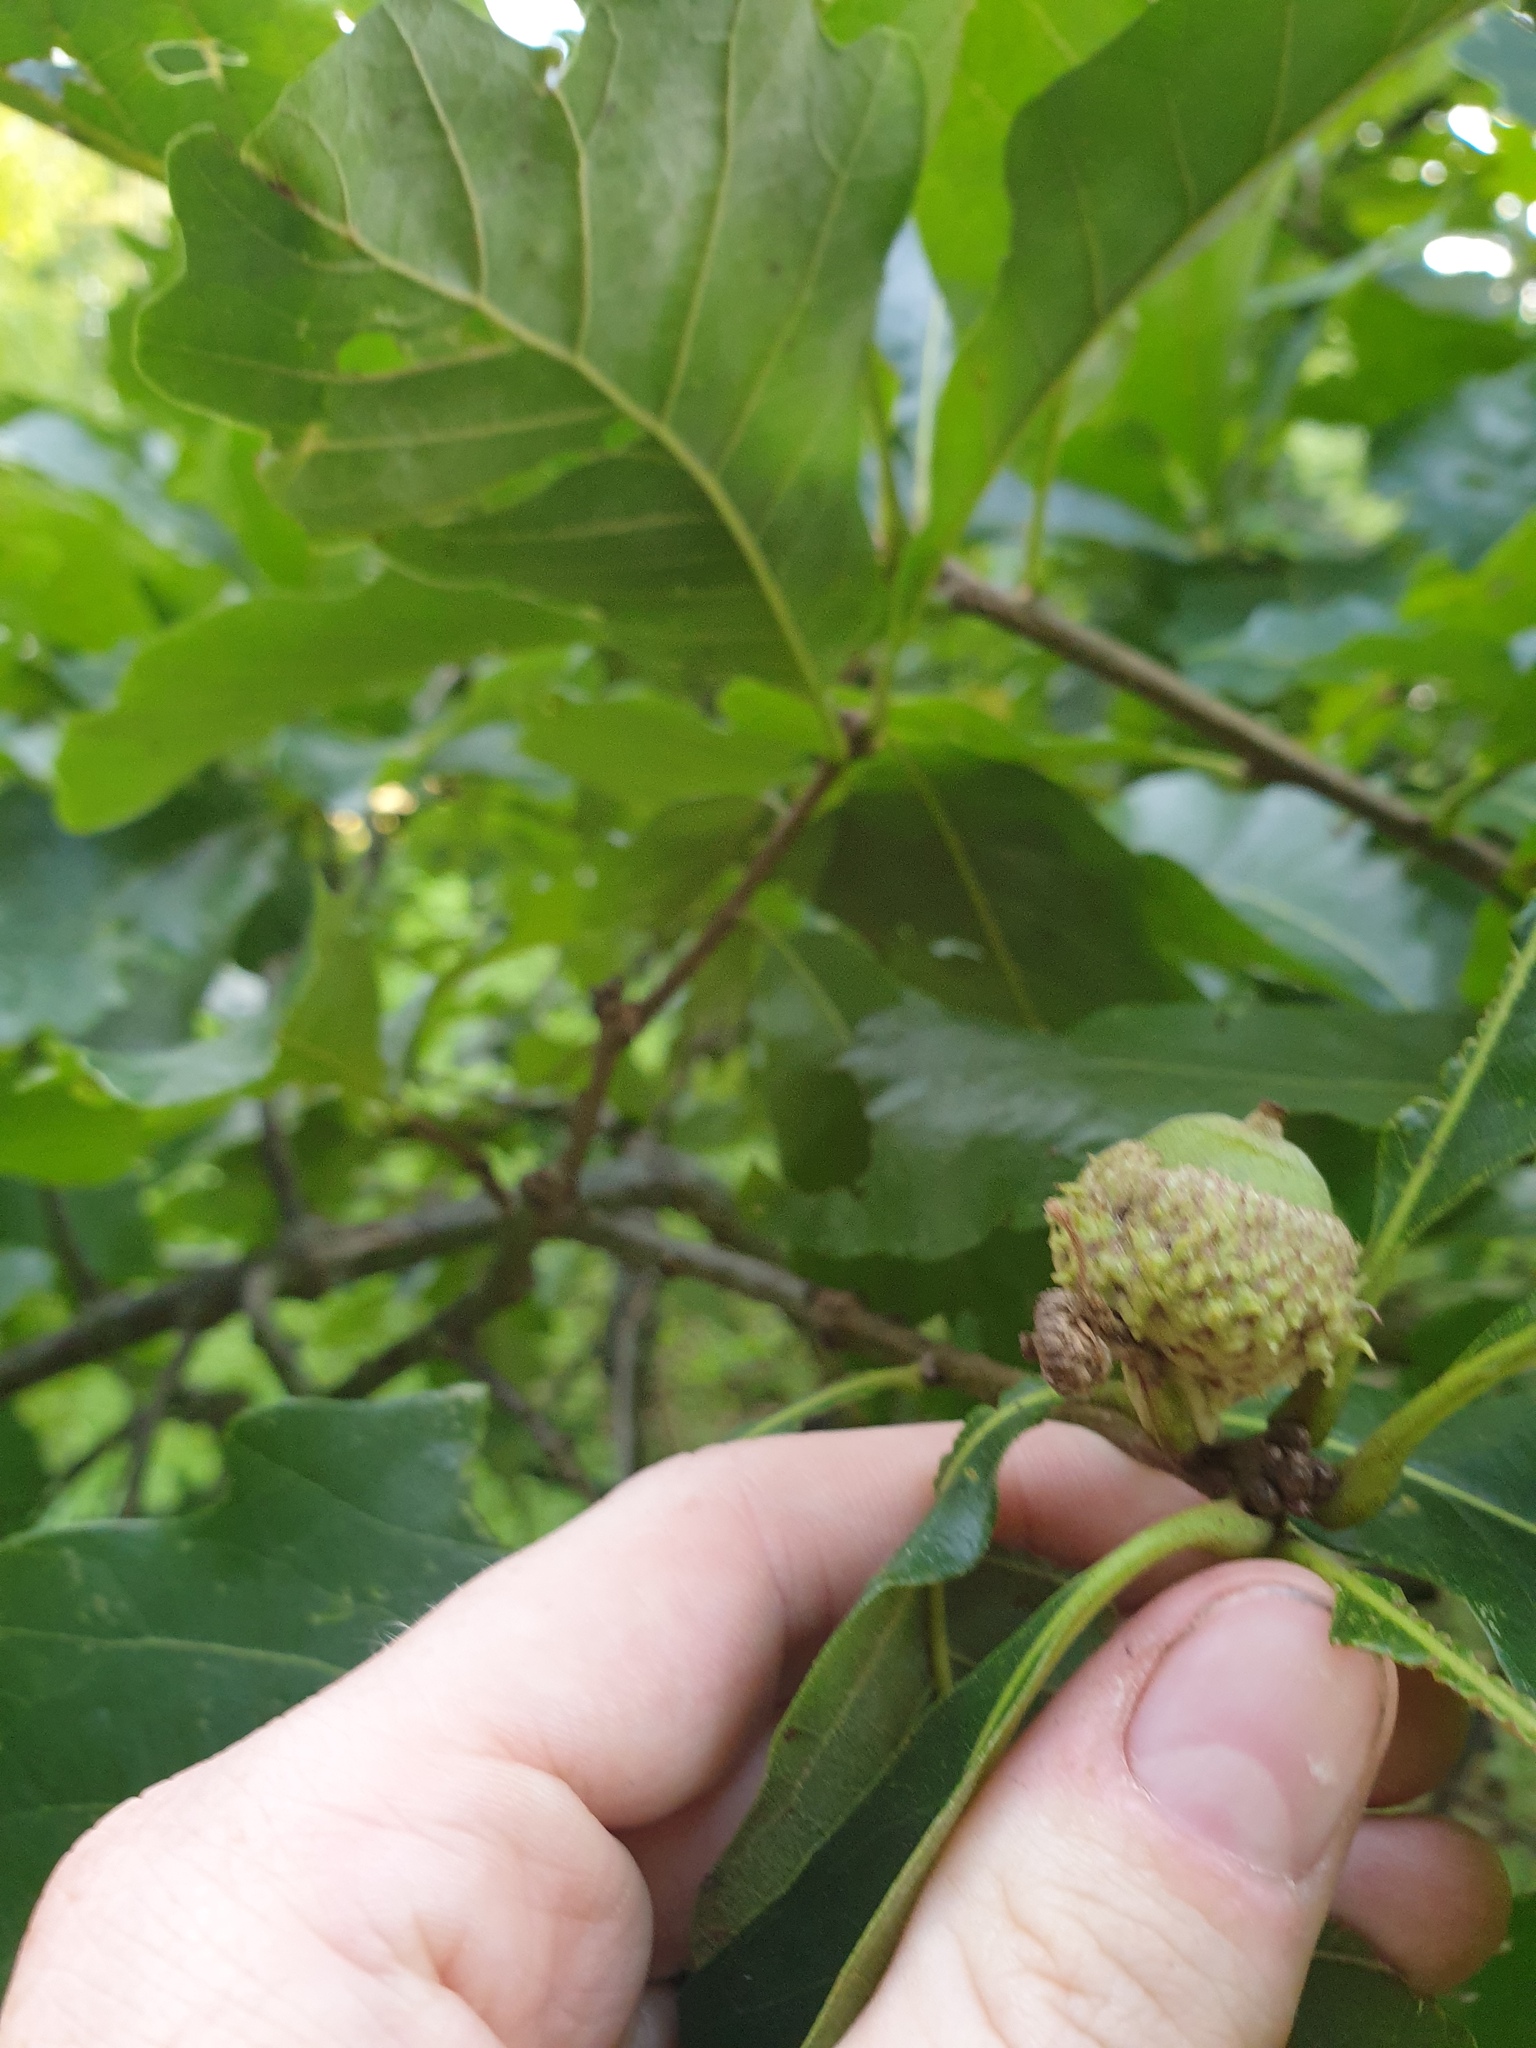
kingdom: Plantae
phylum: Tracheophyta
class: Magnoliopsida
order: Fagales
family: Fagaceae
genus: Quercus
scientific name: Quercus bicolor
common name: Swamp white oak
